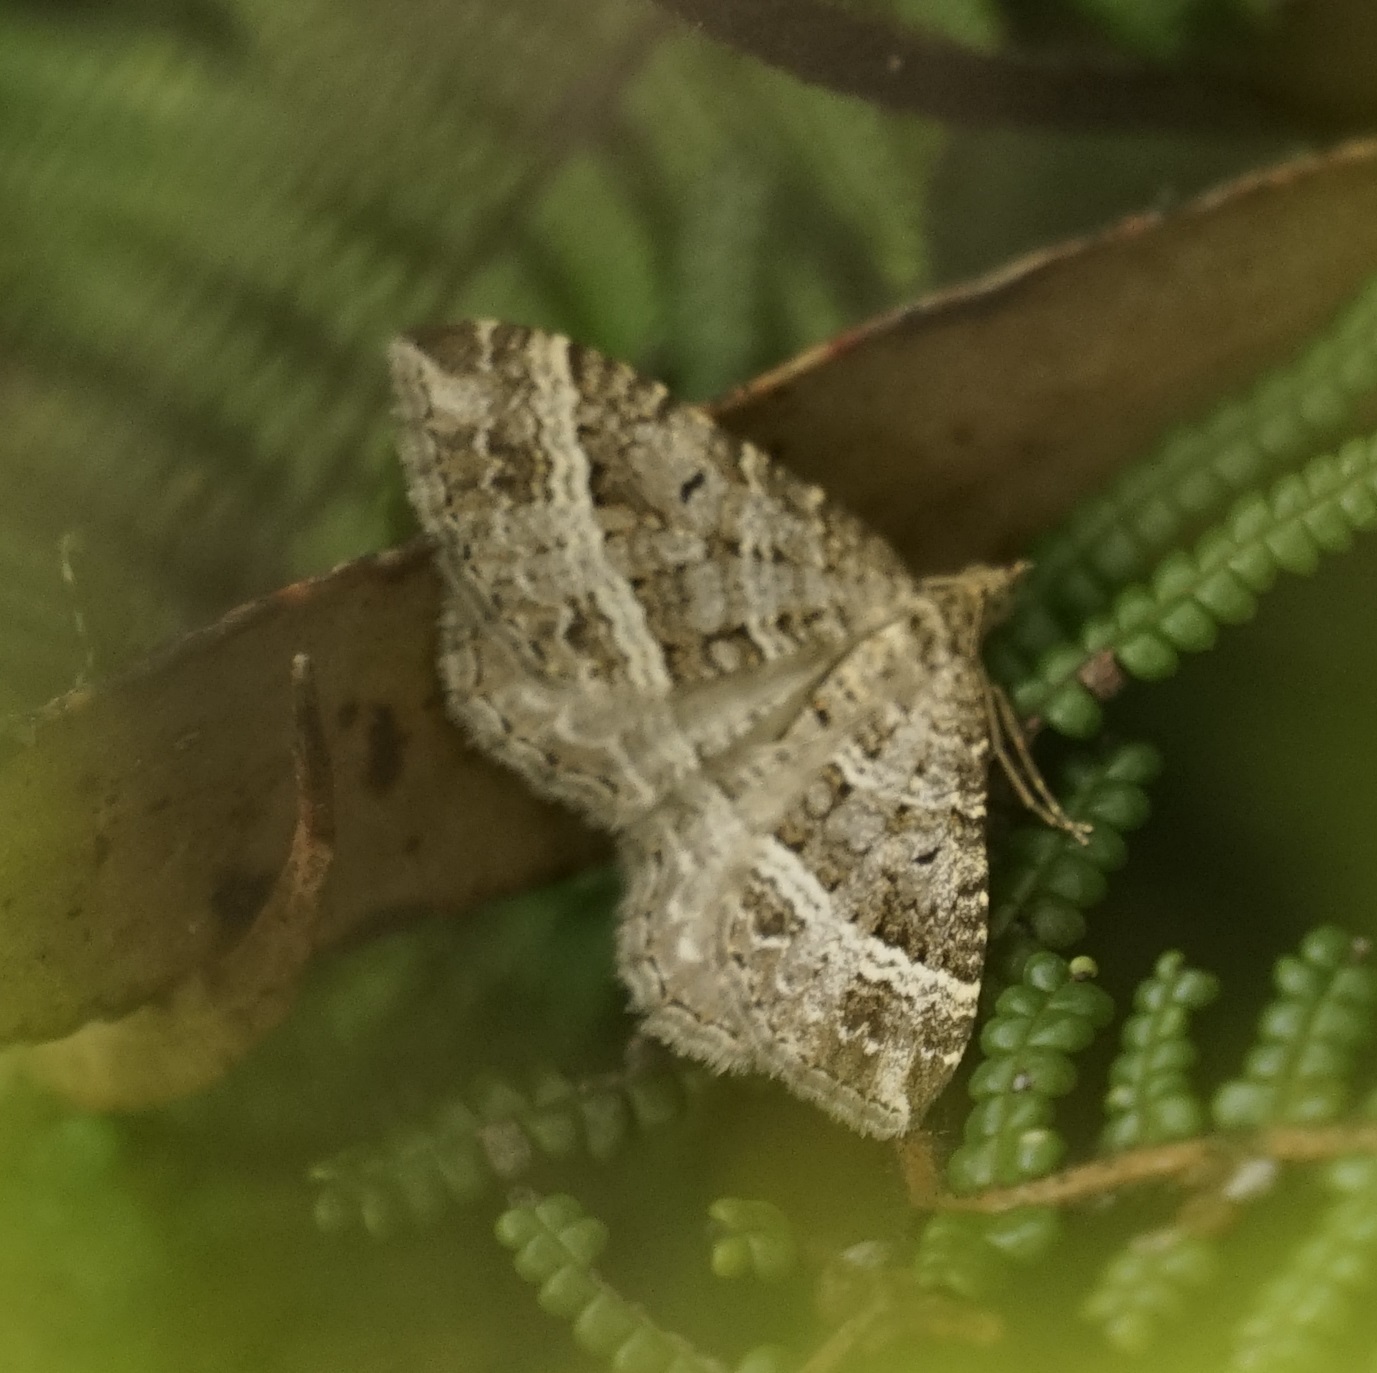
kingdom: Animalia
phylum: Arthropoda
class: Insecta
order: Lepidoptera
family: Geometridae
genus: Chrysolarentia
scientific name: Chrysolarentia subrectaria
